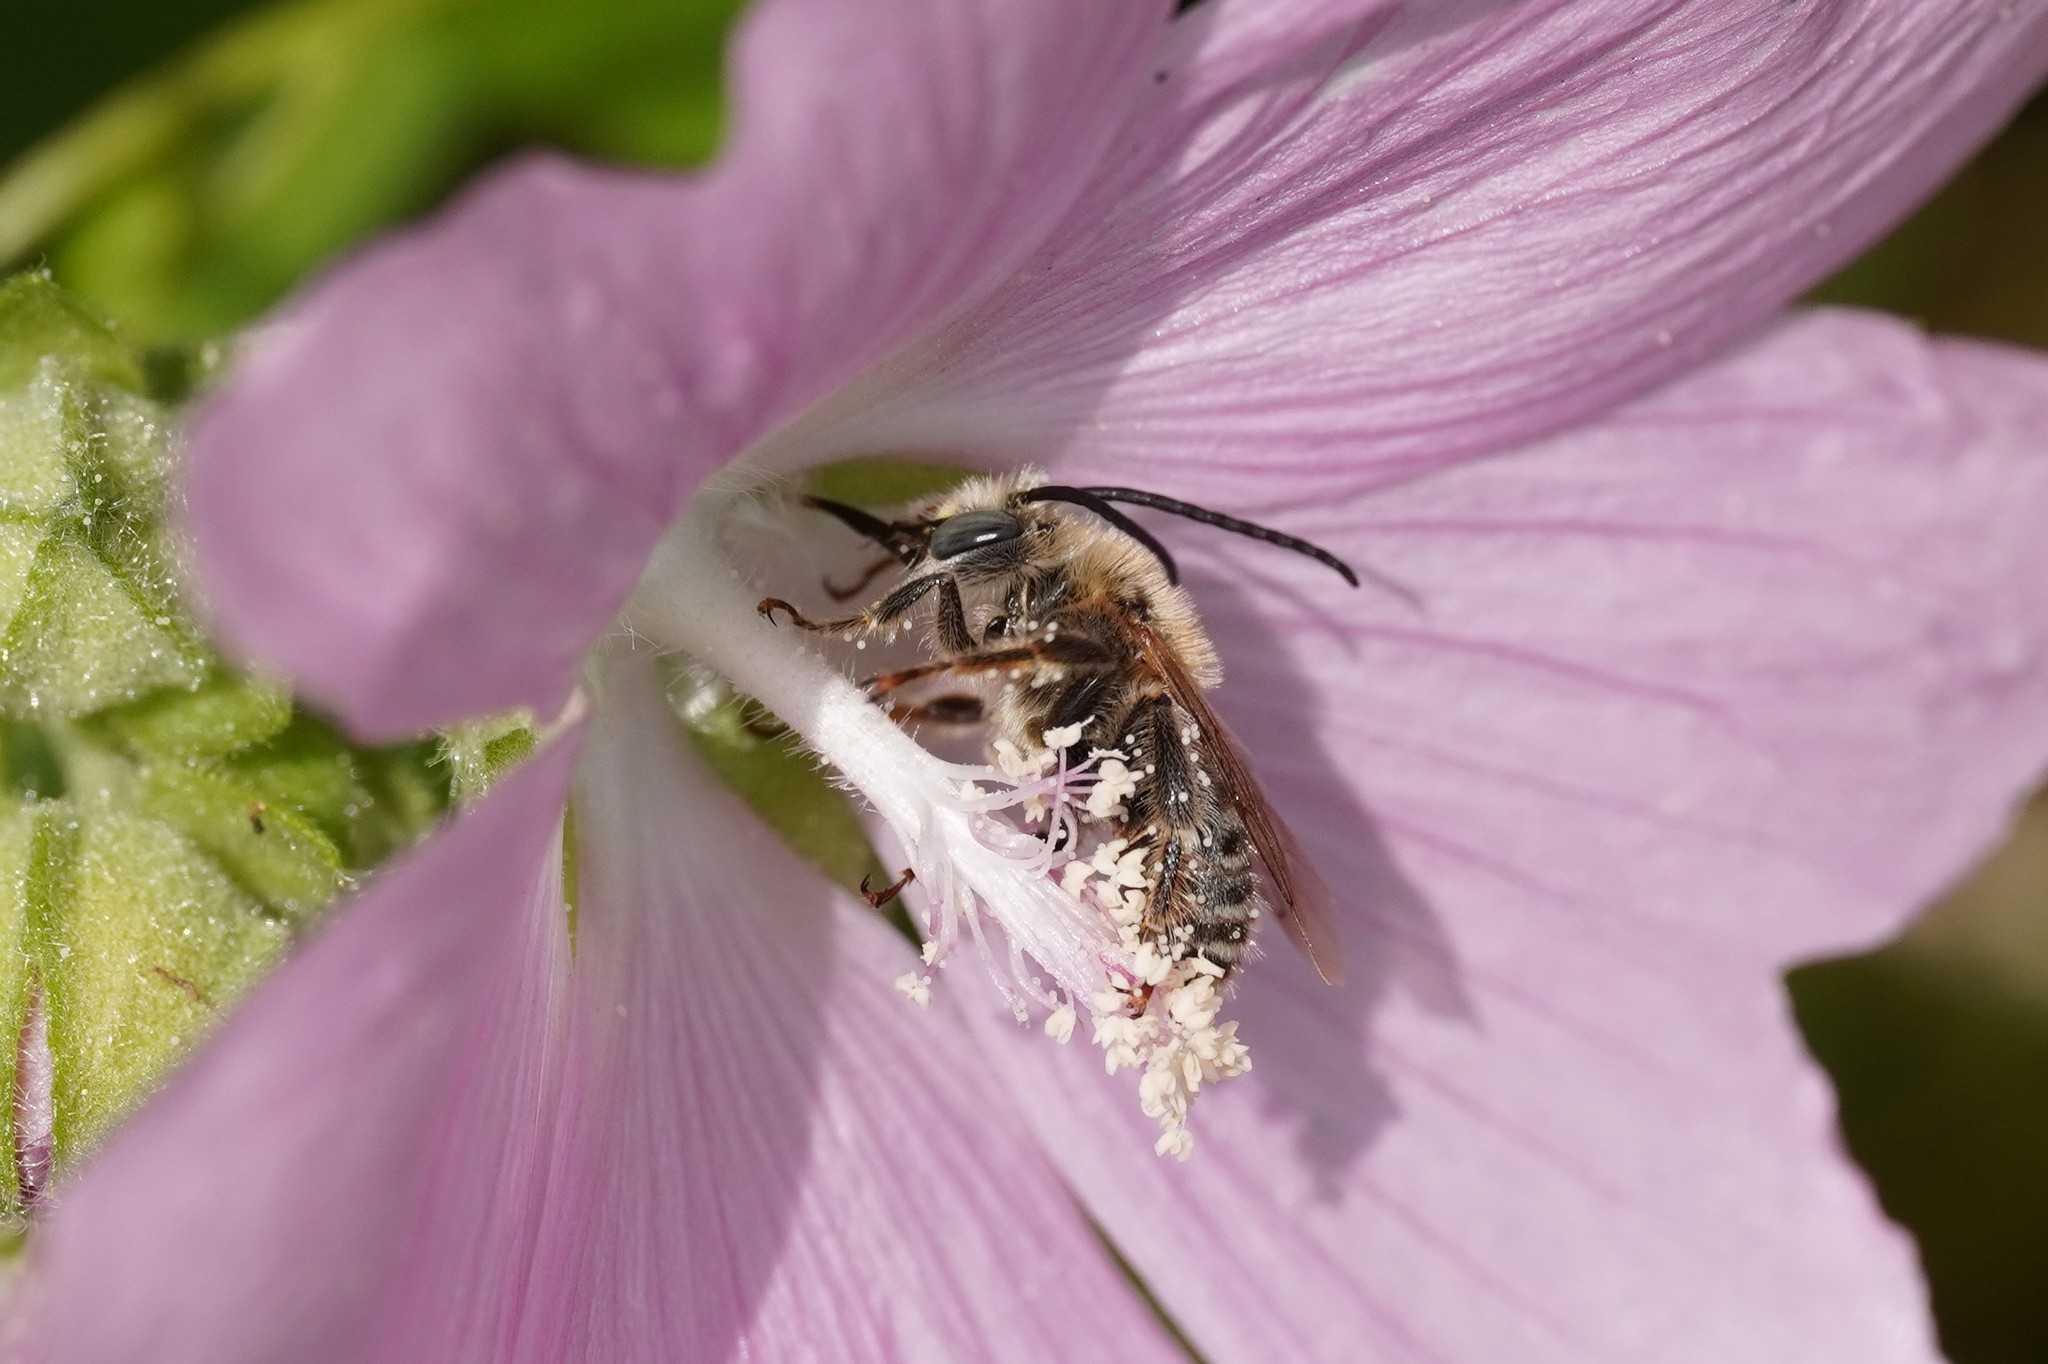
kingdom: Animalia
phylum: Arthropoda
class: Insecta
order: Hymenoptera
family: Apidae
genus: Tetralonia
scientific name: Tetralonia malvae
